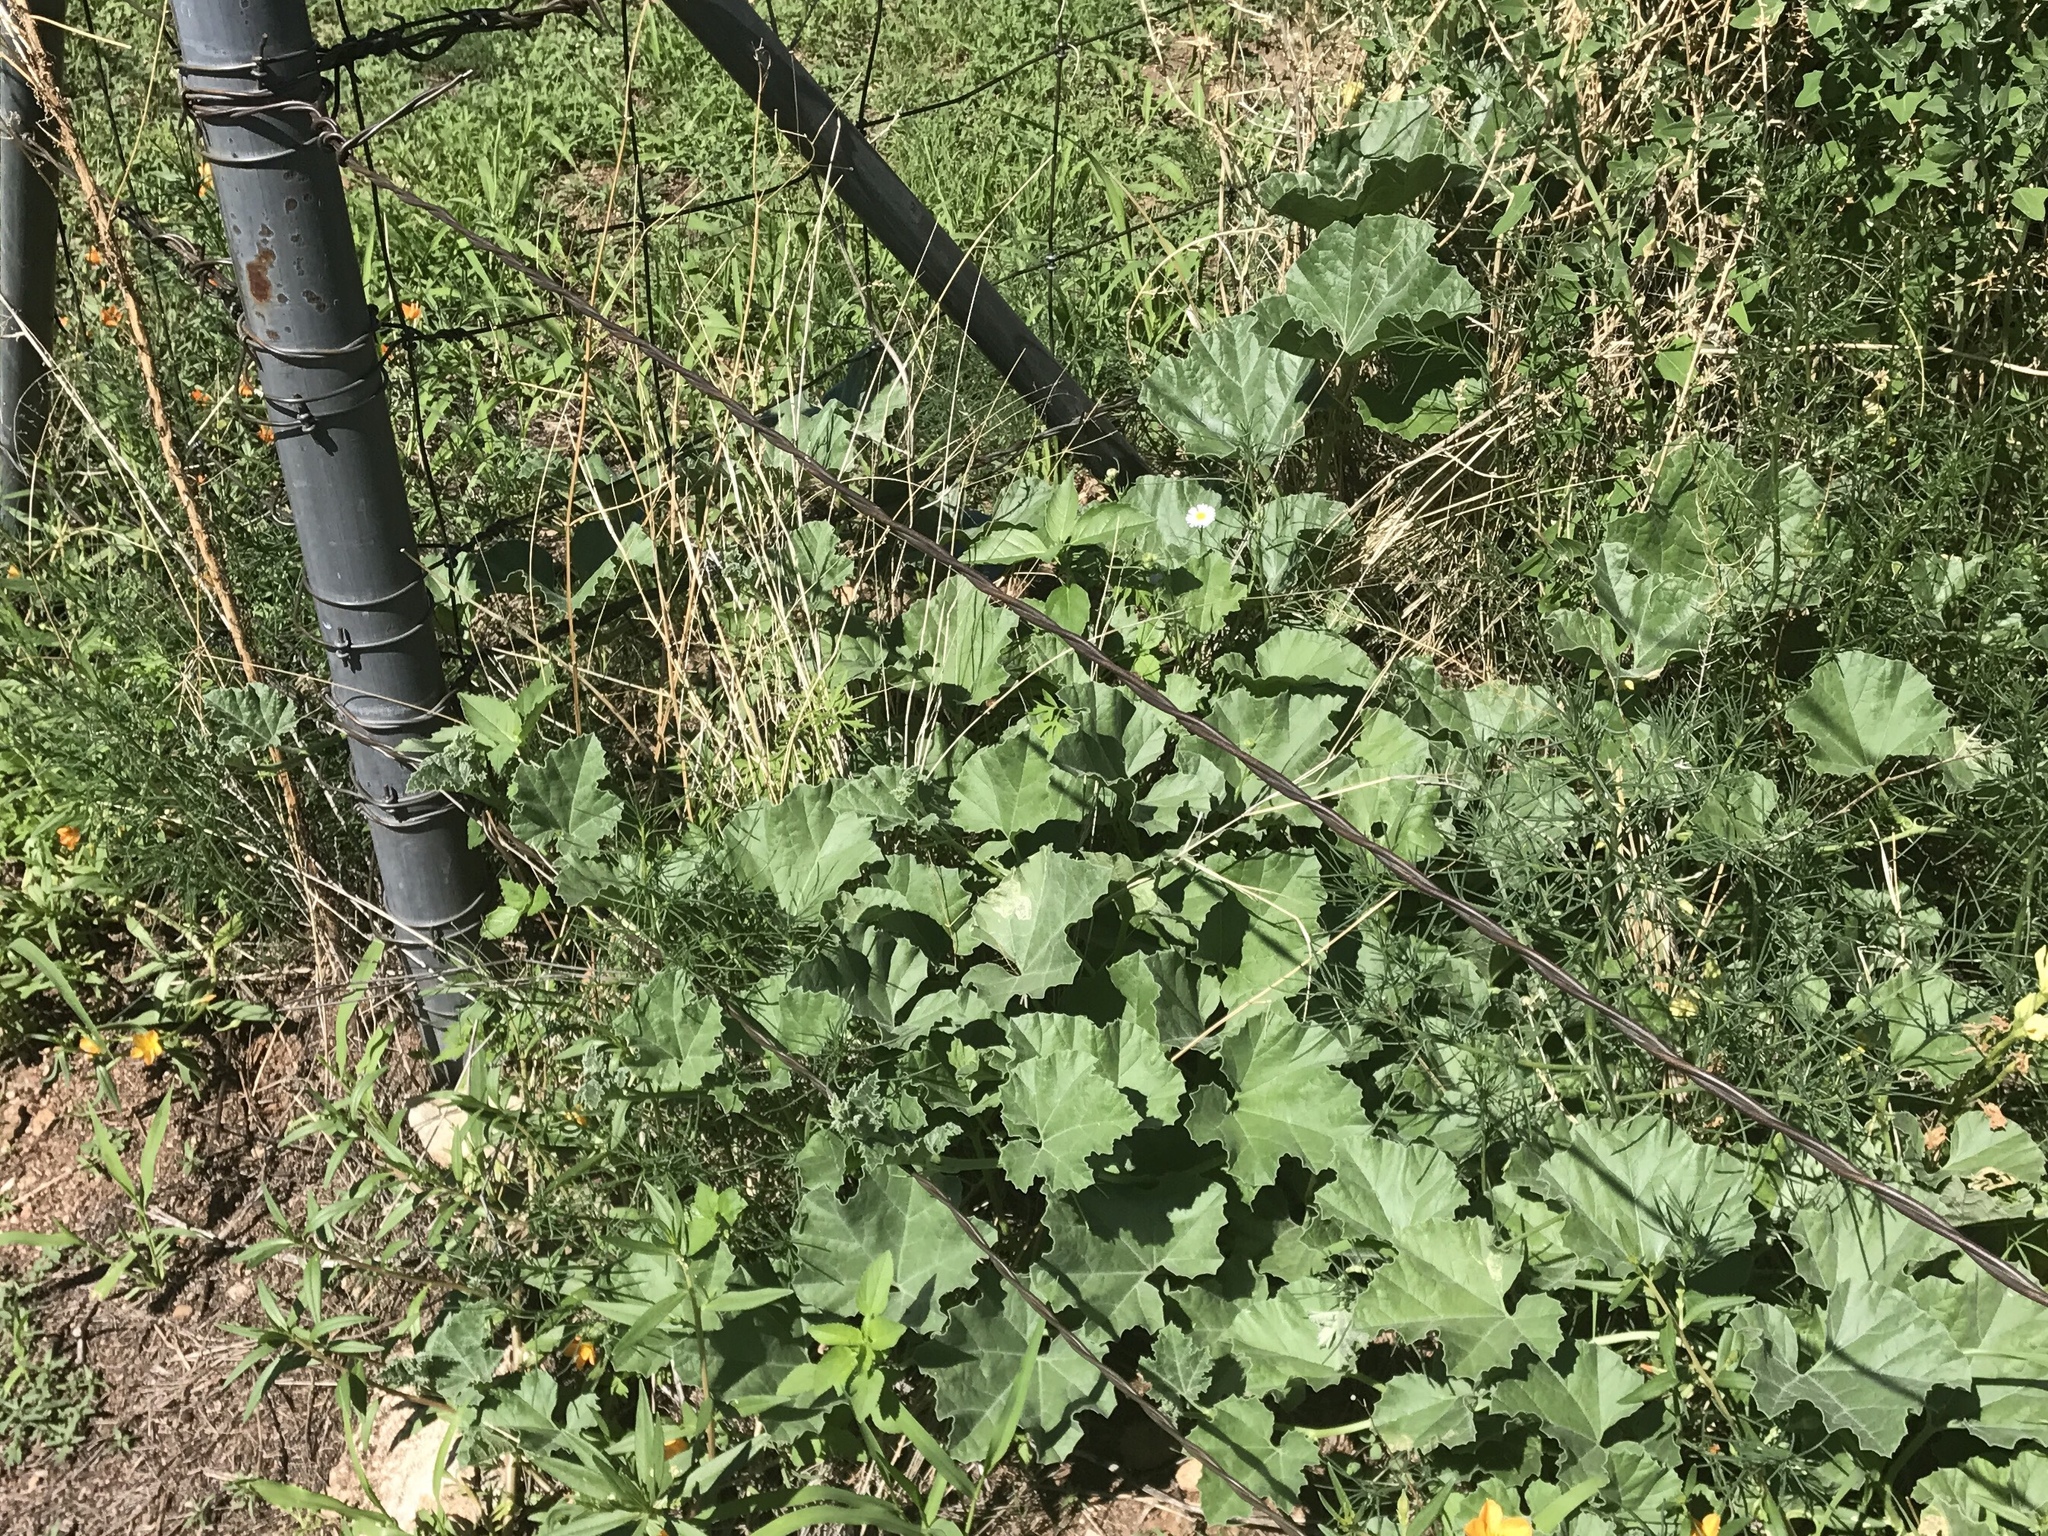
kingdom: Plantae
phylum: Tracheophyta
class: Magnoliopsida
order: Cucurbitales
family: Cucurbitaceae
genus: Apodanthera
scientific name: Apodanthera undulata
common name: Melon-loco
